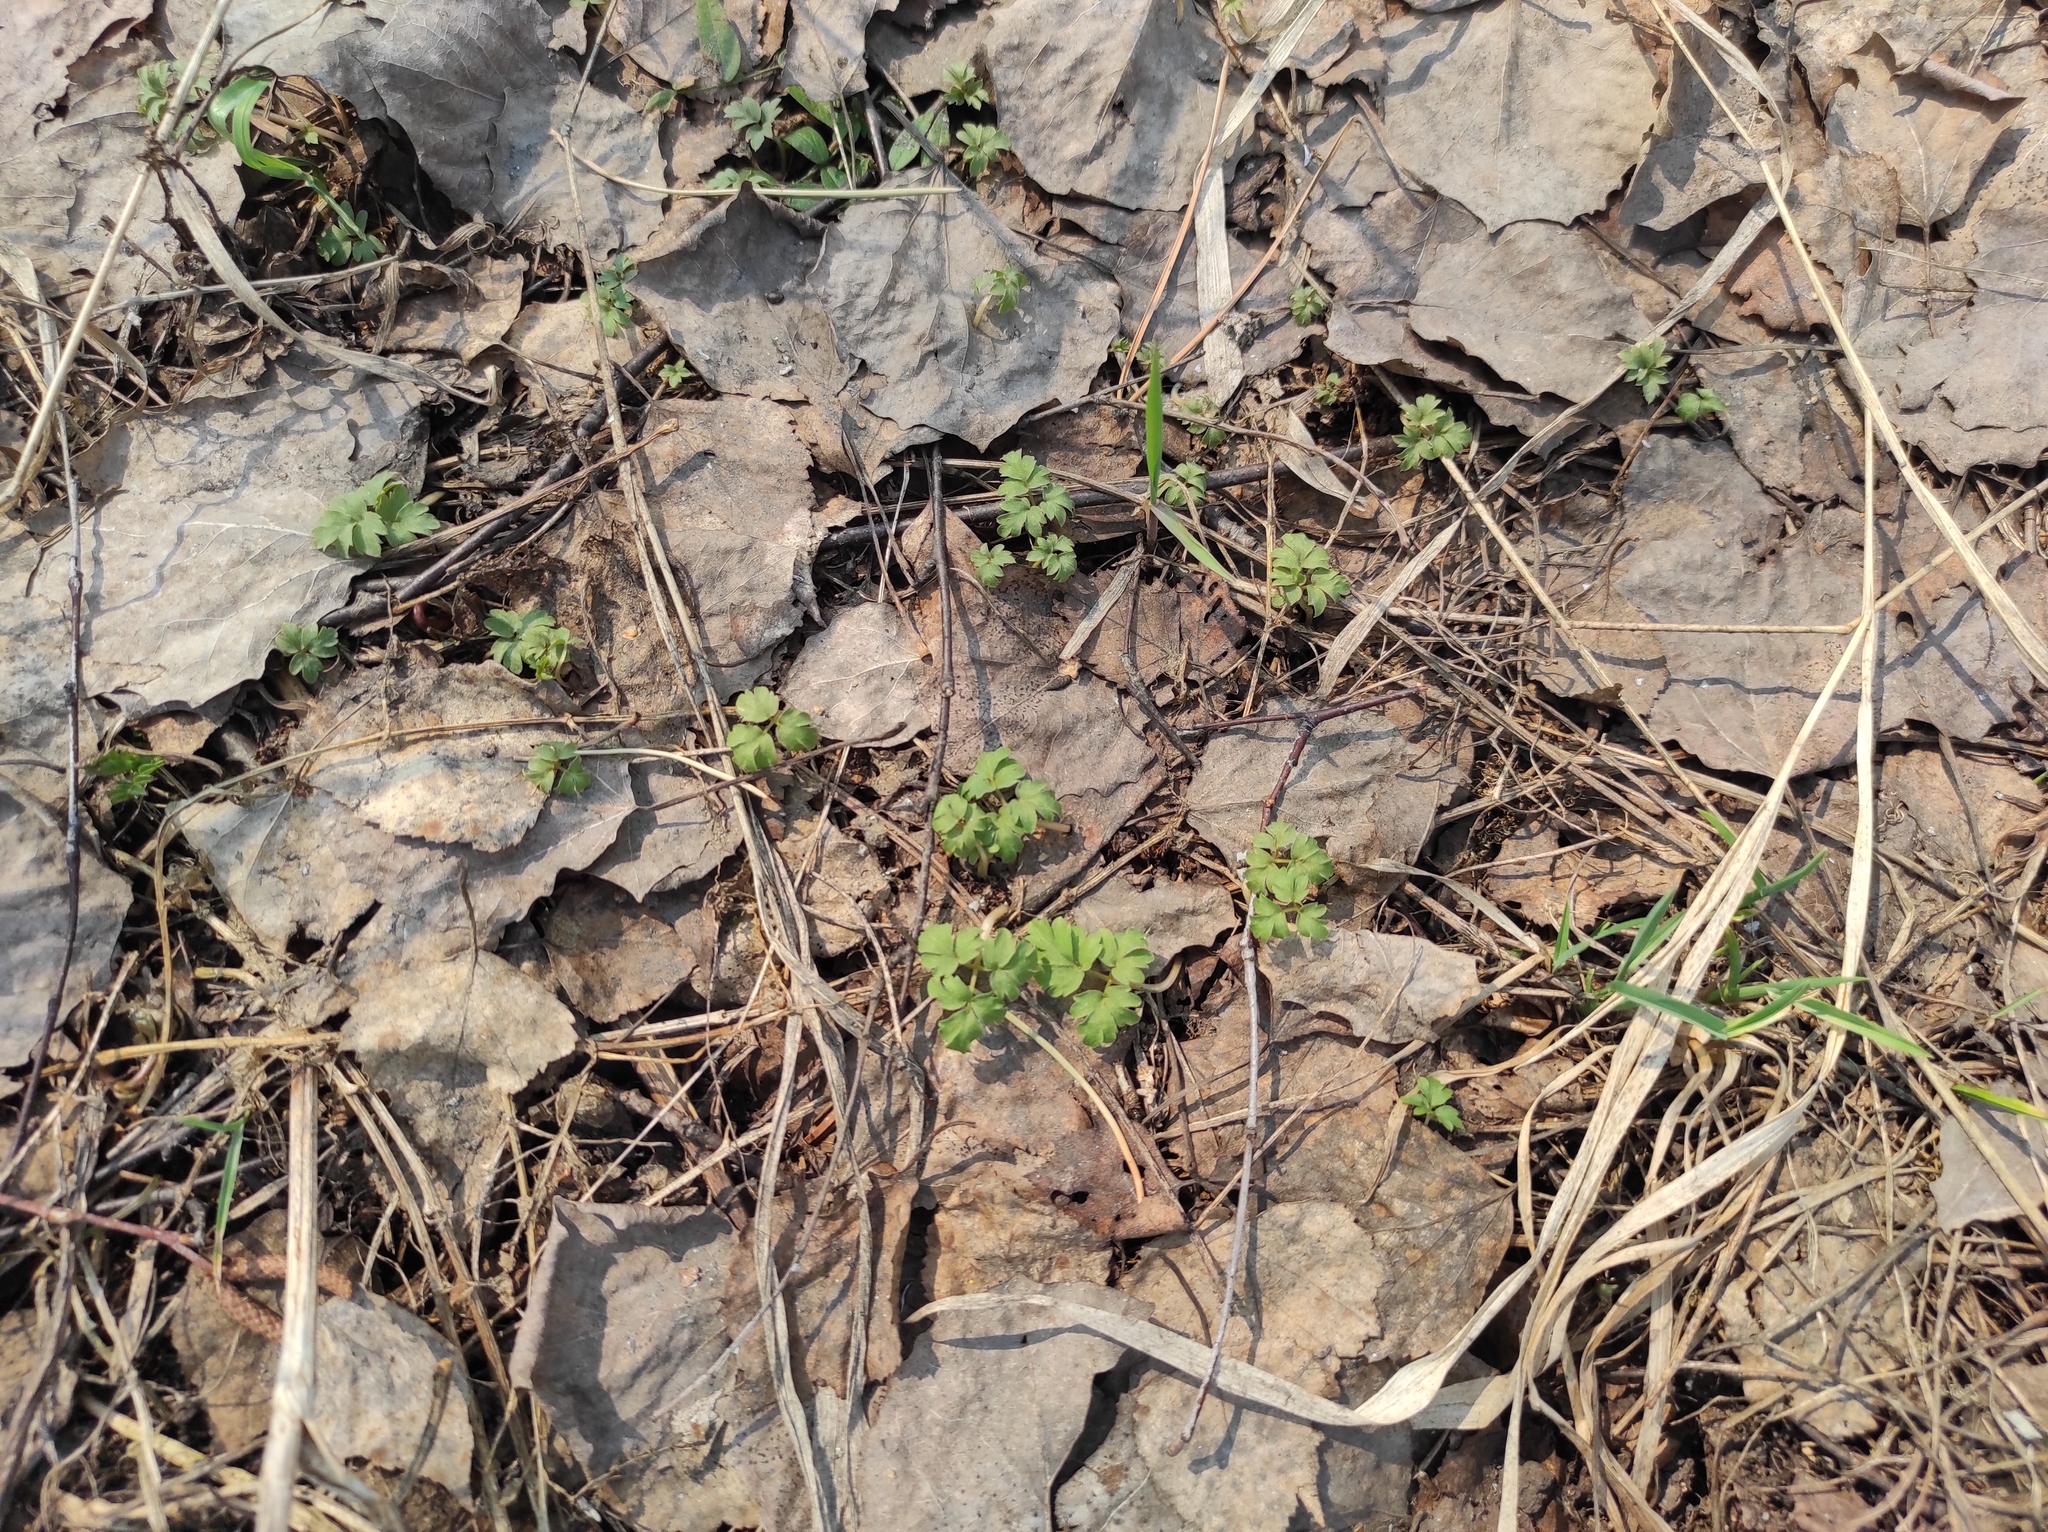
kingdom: Plantae
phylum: Tracheophyta
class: Magnoliopsida
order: Dipsacales
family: Viburnaceae
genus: Adoxa
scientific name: Adoxa moschatellina
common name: Moschatel
